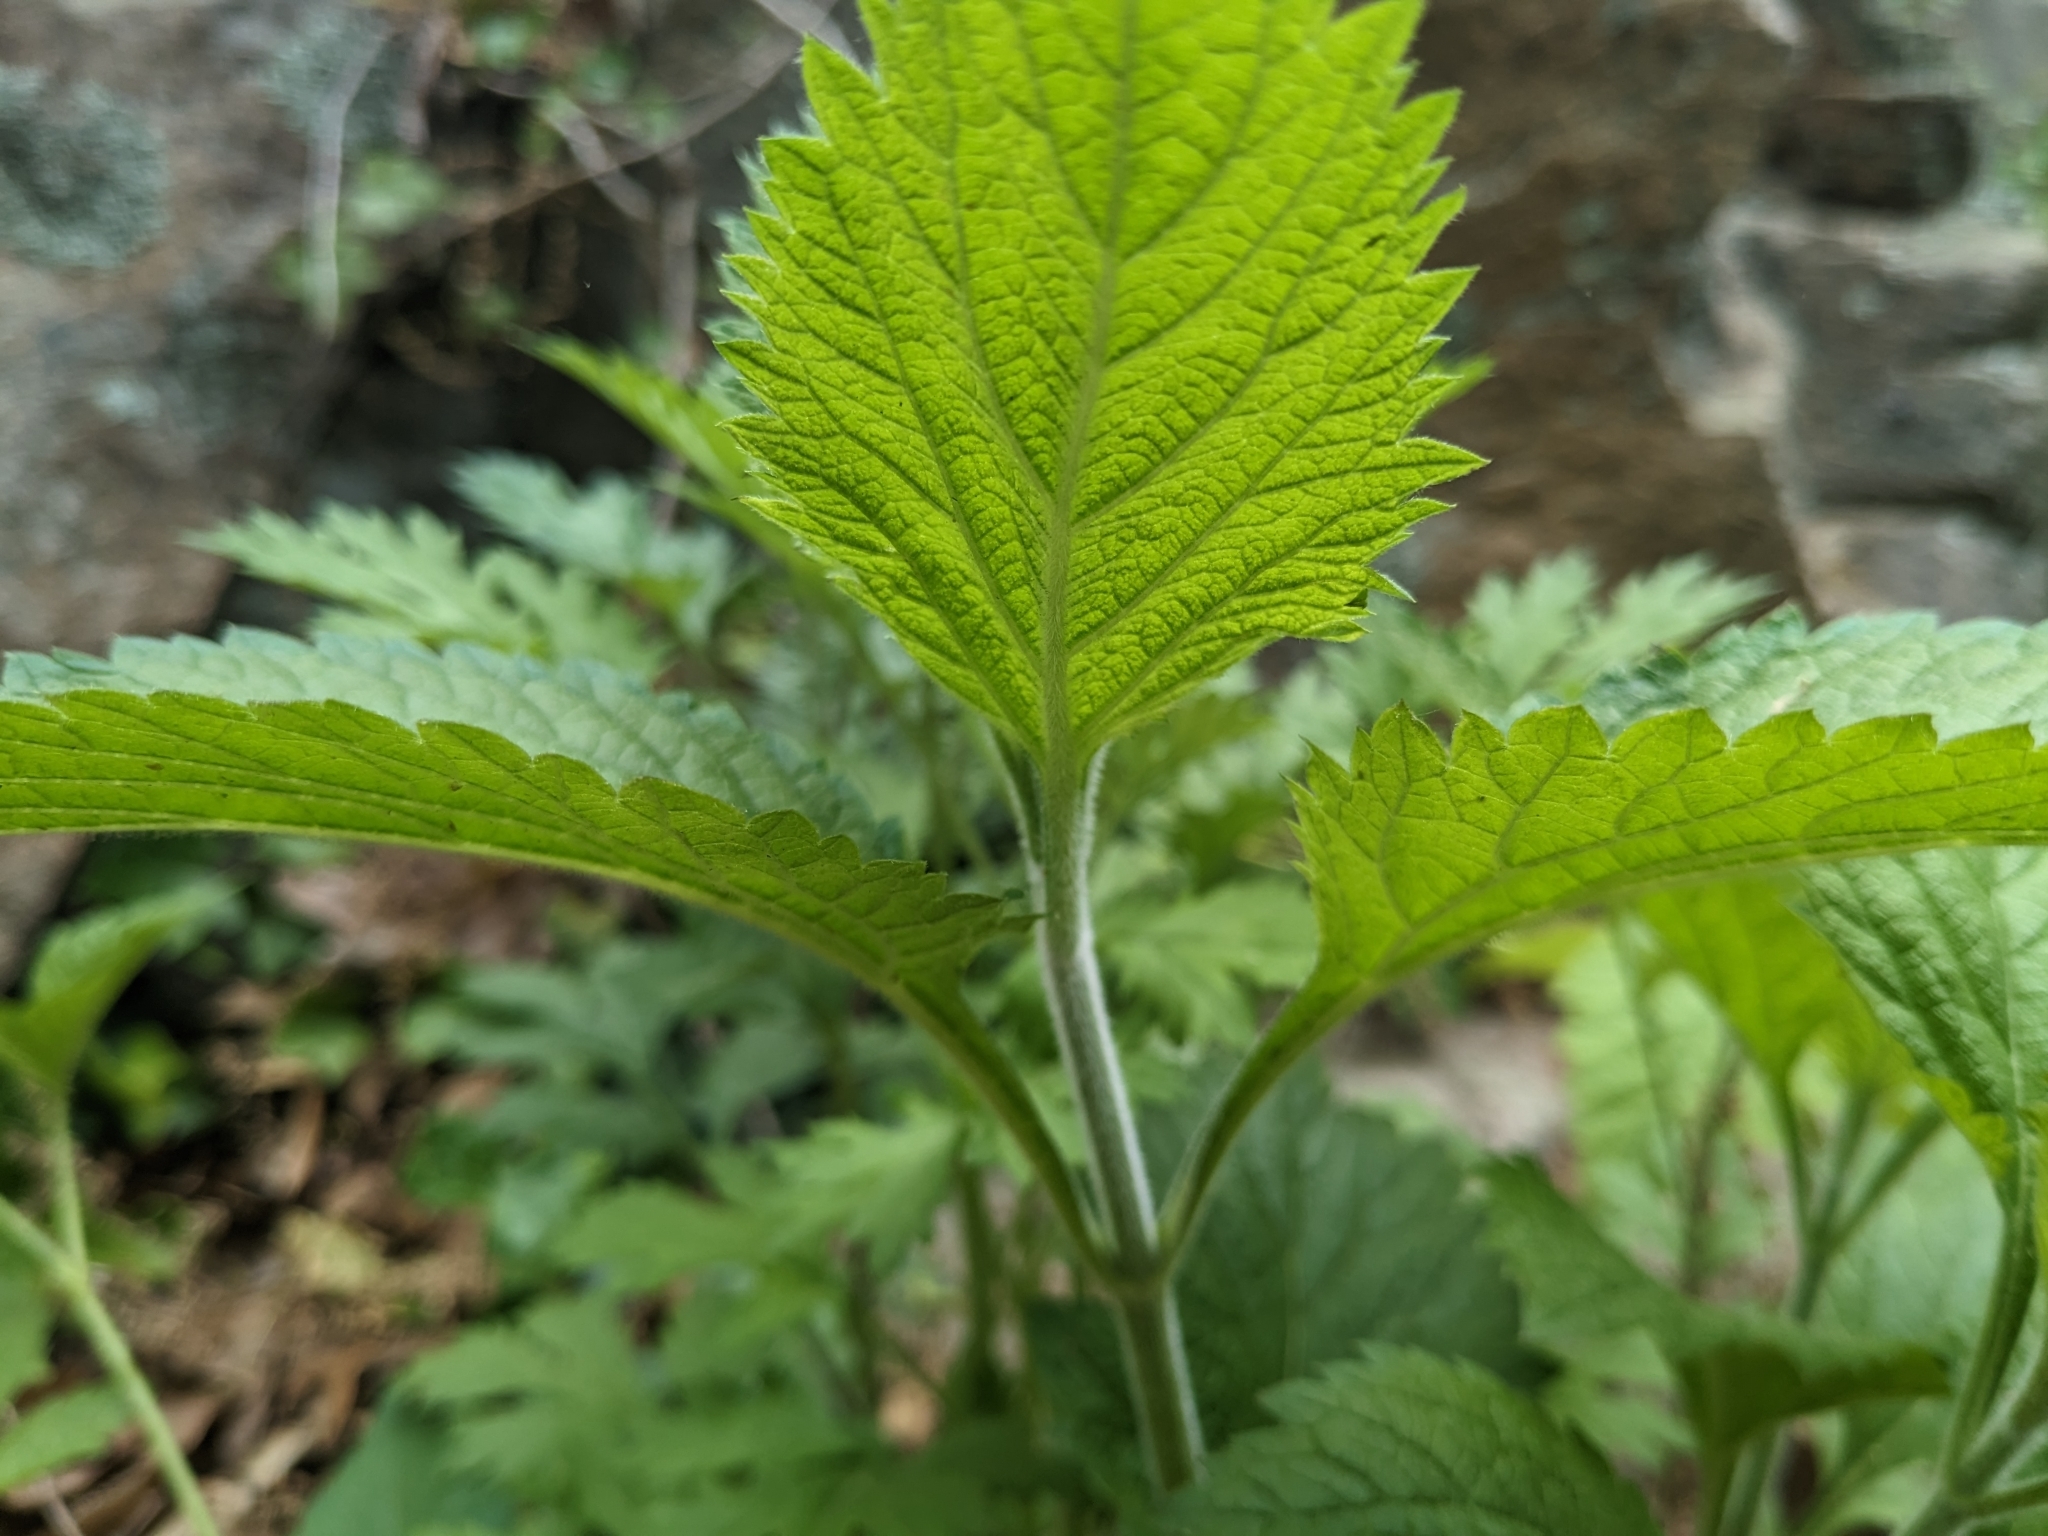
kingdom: Plantae
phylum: Tracheophyta
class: Magnoliopsida
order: Lamiales
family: Verbenaceae
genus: Verbena
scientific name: Verbena urticifolia
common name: Nettle-leaved vervain
